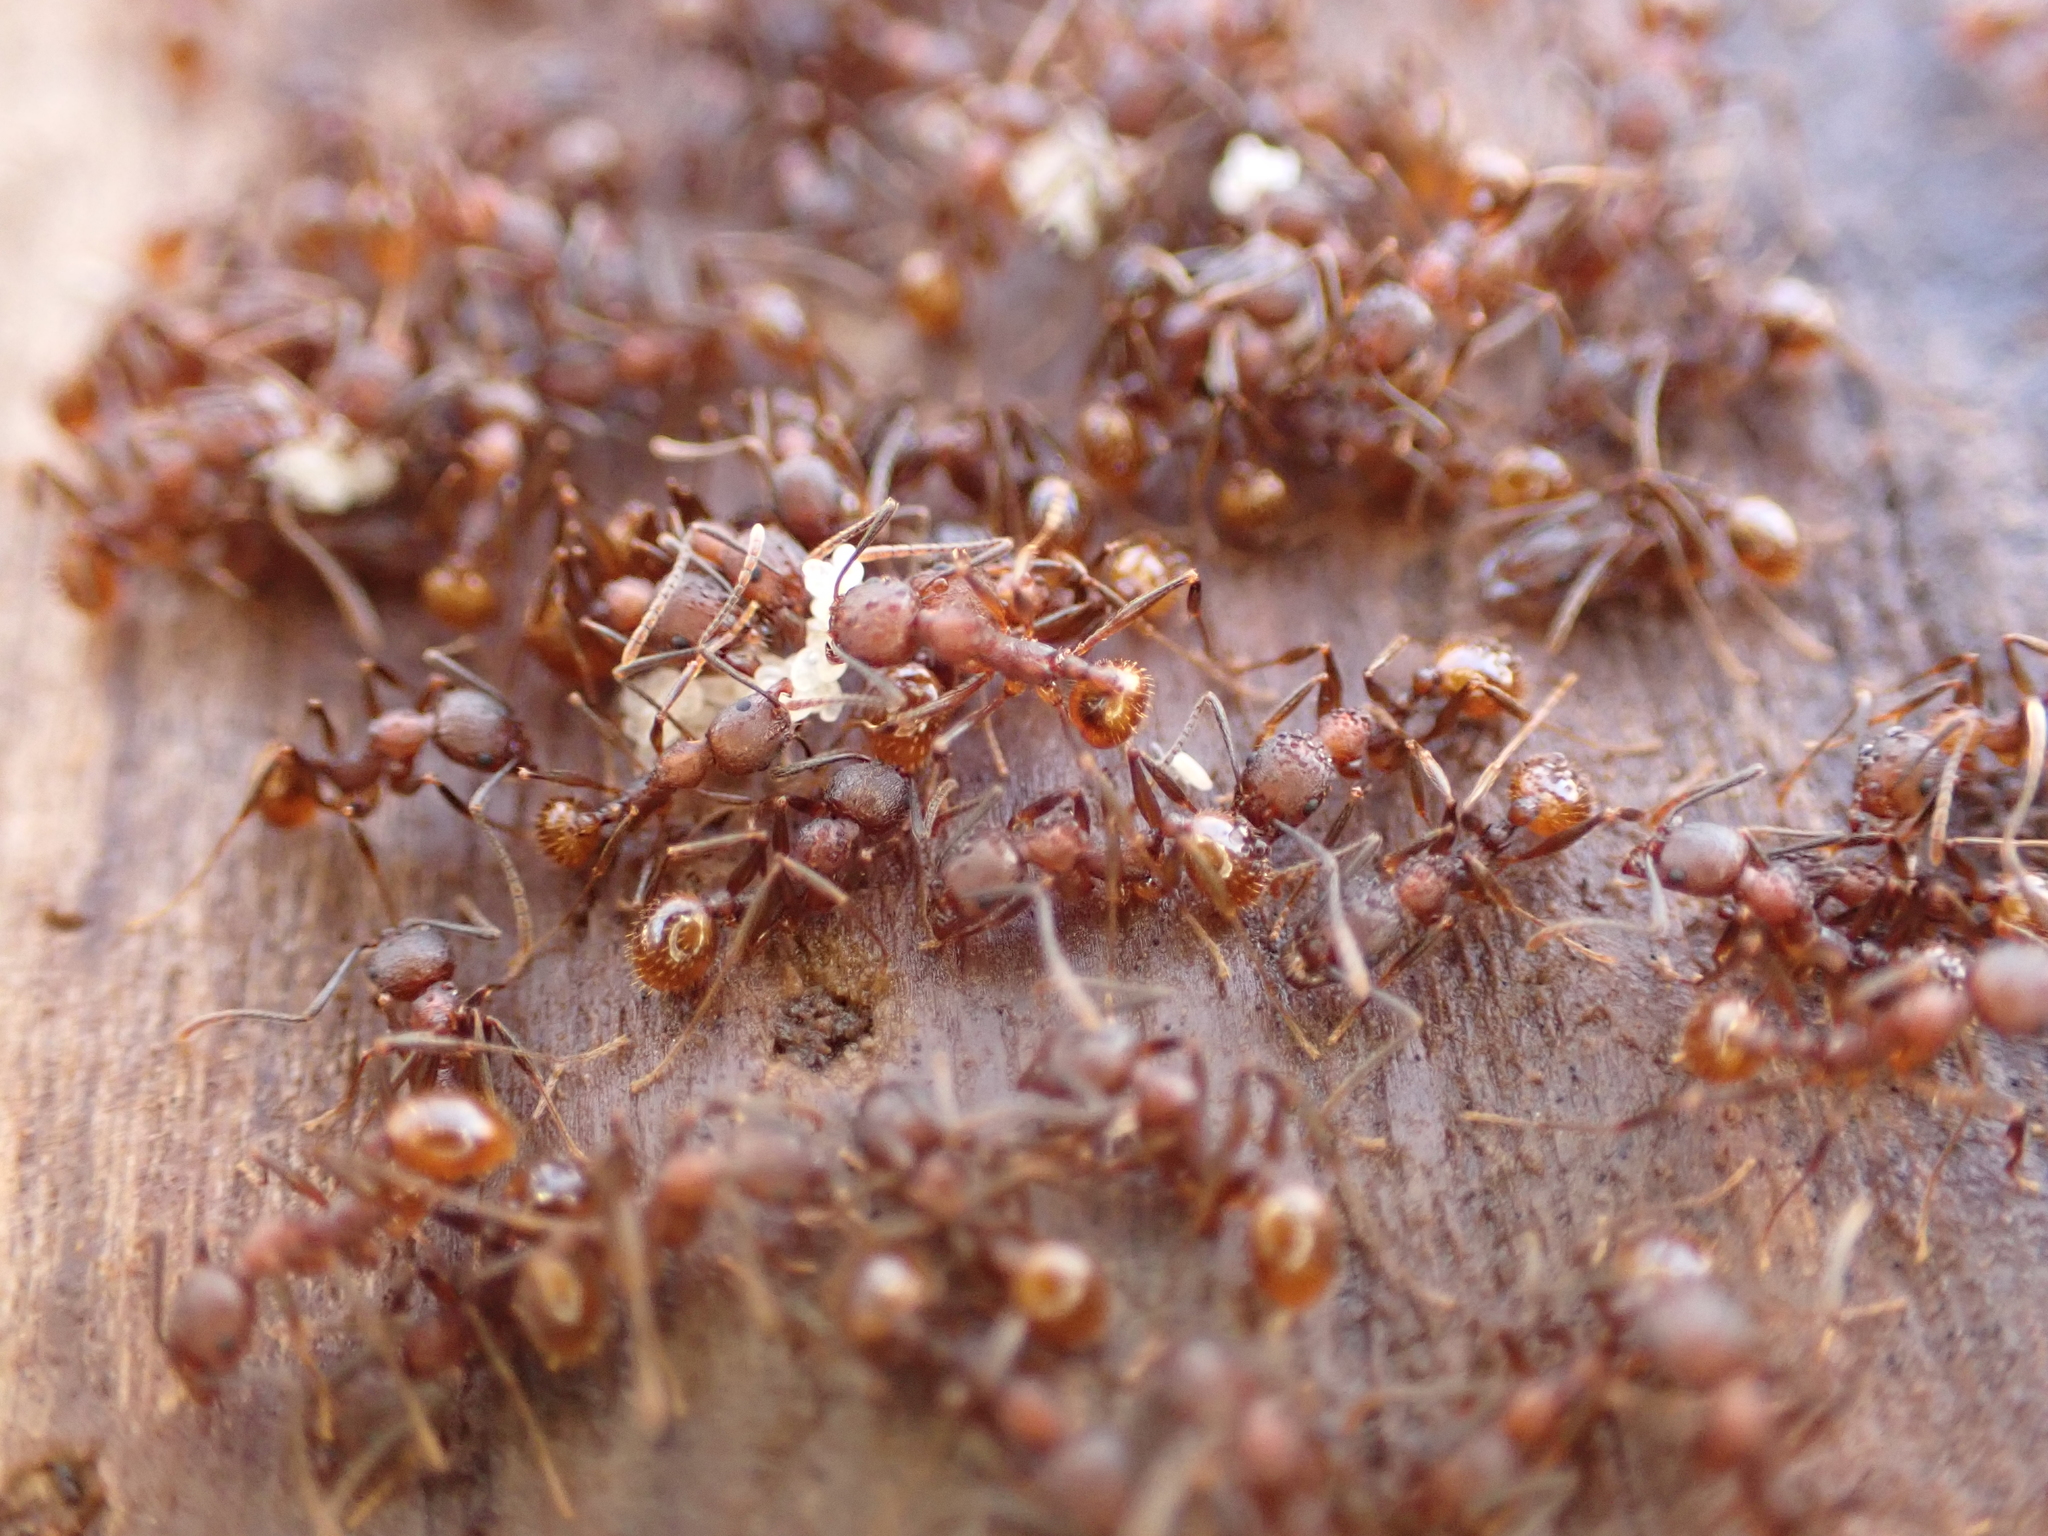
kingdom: Animalia
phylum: Arthropoda
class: Insecta
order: Hymenoptera
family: Formicidae
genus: Aphaenogaster
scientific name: Aphaenogaster fulva
